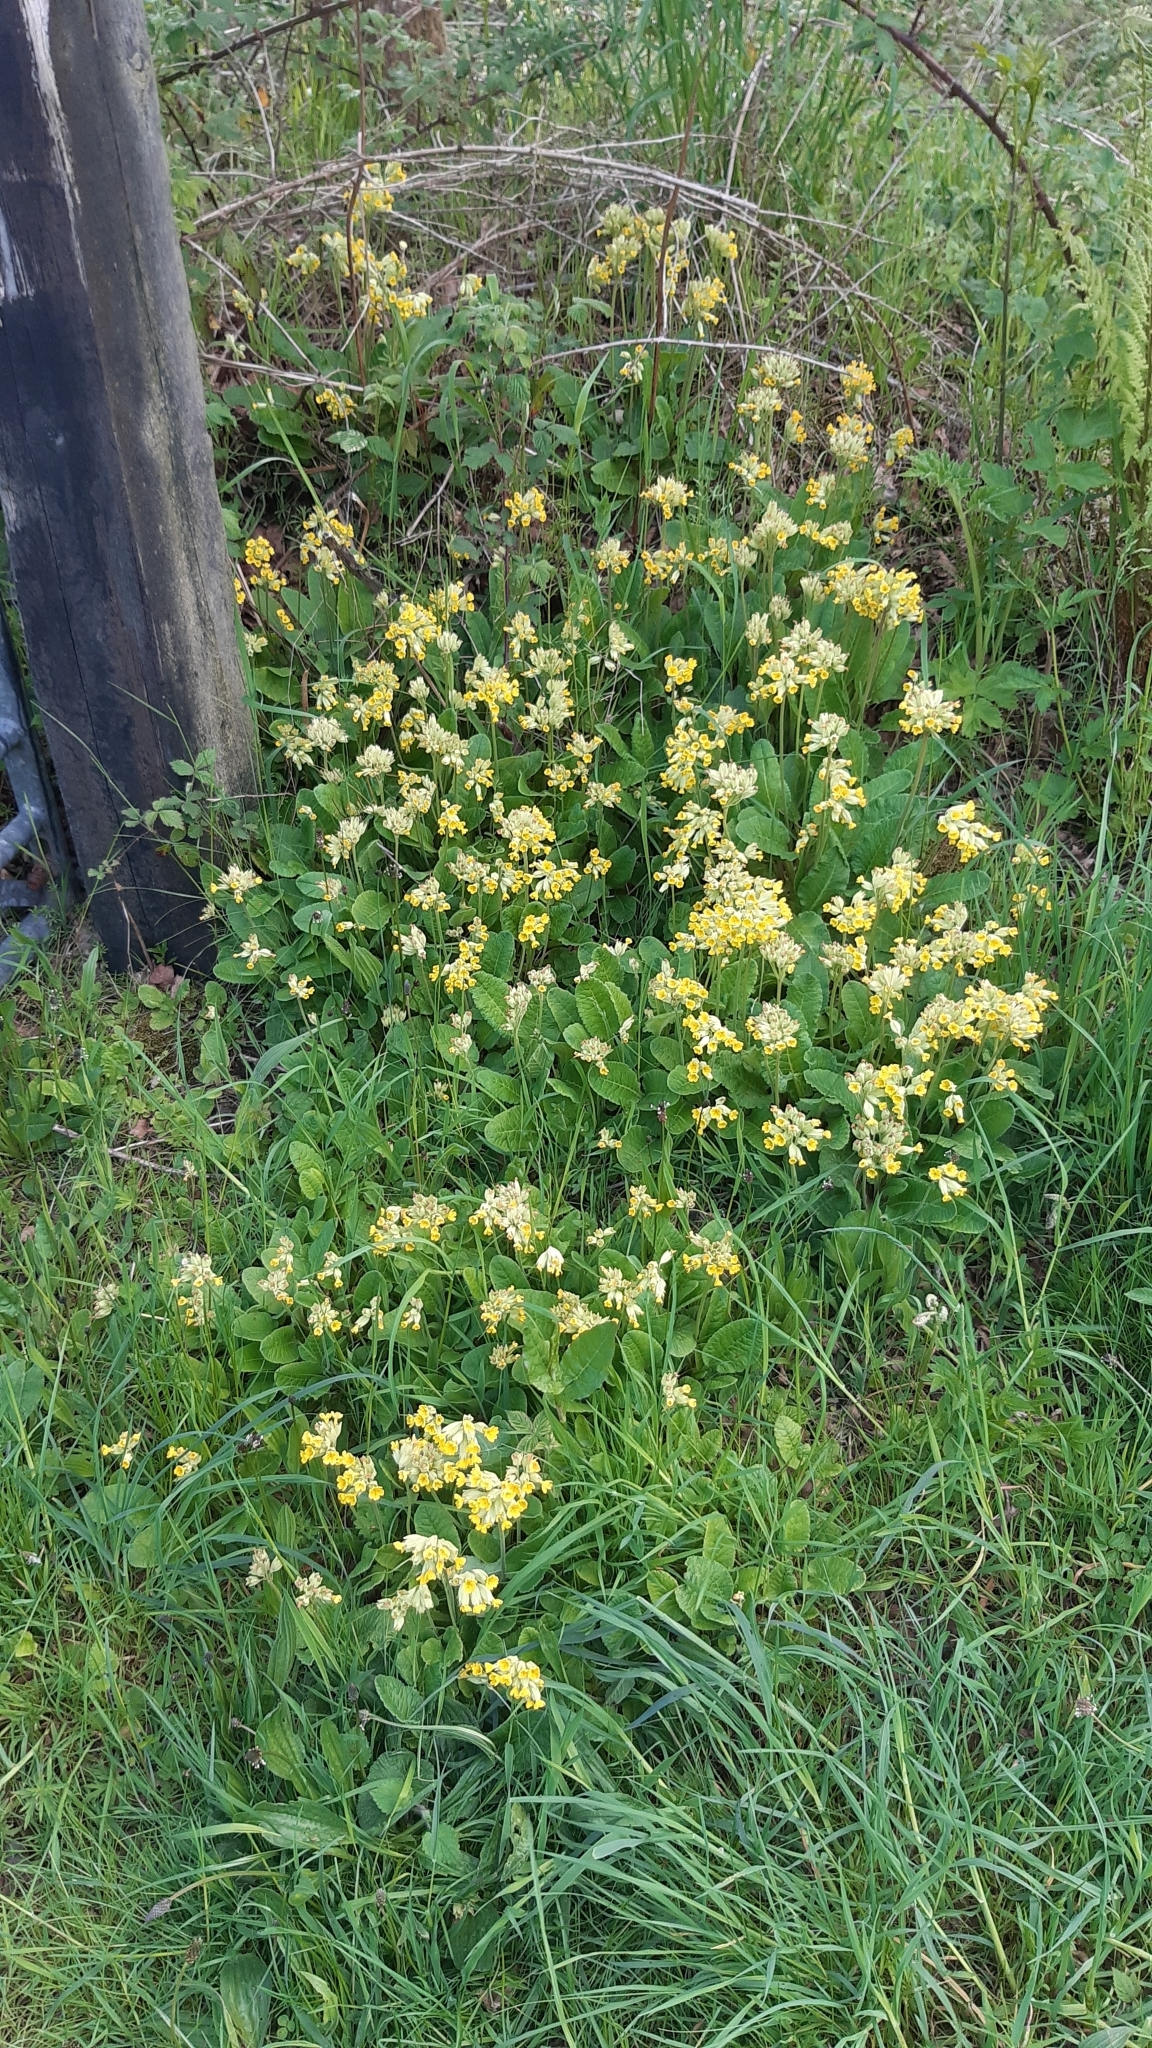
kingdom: Plantae
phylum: Tracheophyta
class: Magnoliopsida
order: Ericales
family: Primulaceae
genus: Primula
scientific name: Primula veris
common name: Cowslip
